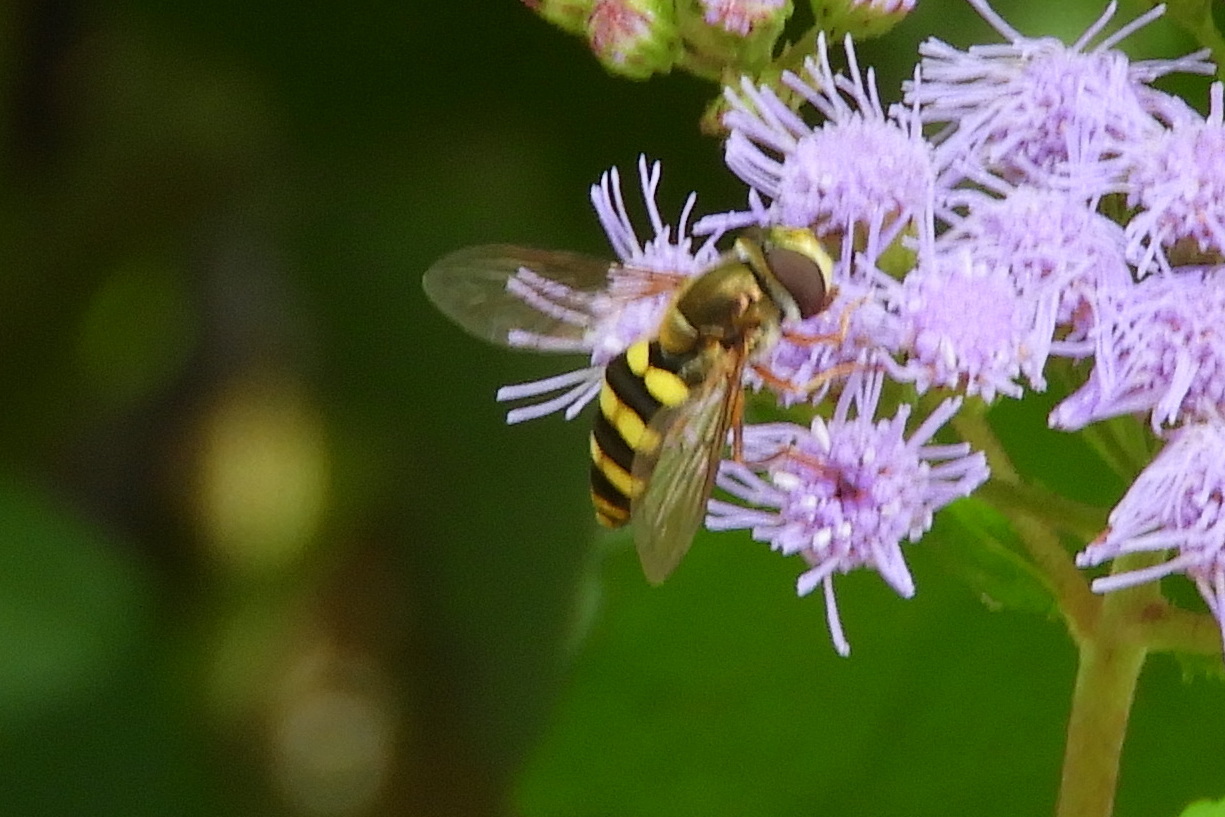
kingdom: Animalia
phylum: Arthropoda
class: Insecta
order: Diptera
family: Syrphidae
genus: Eupeodes
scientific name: Eupeodes
